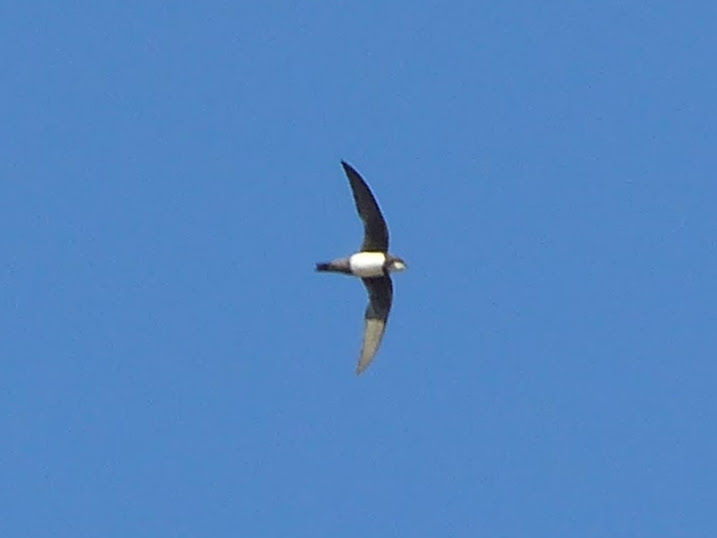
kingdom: Animalia
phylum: Chordata
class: Aves
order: Apodiformes
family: Apodidae
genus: Tachymarptis
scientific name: Tachymarptis melba
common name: Alpine swift
